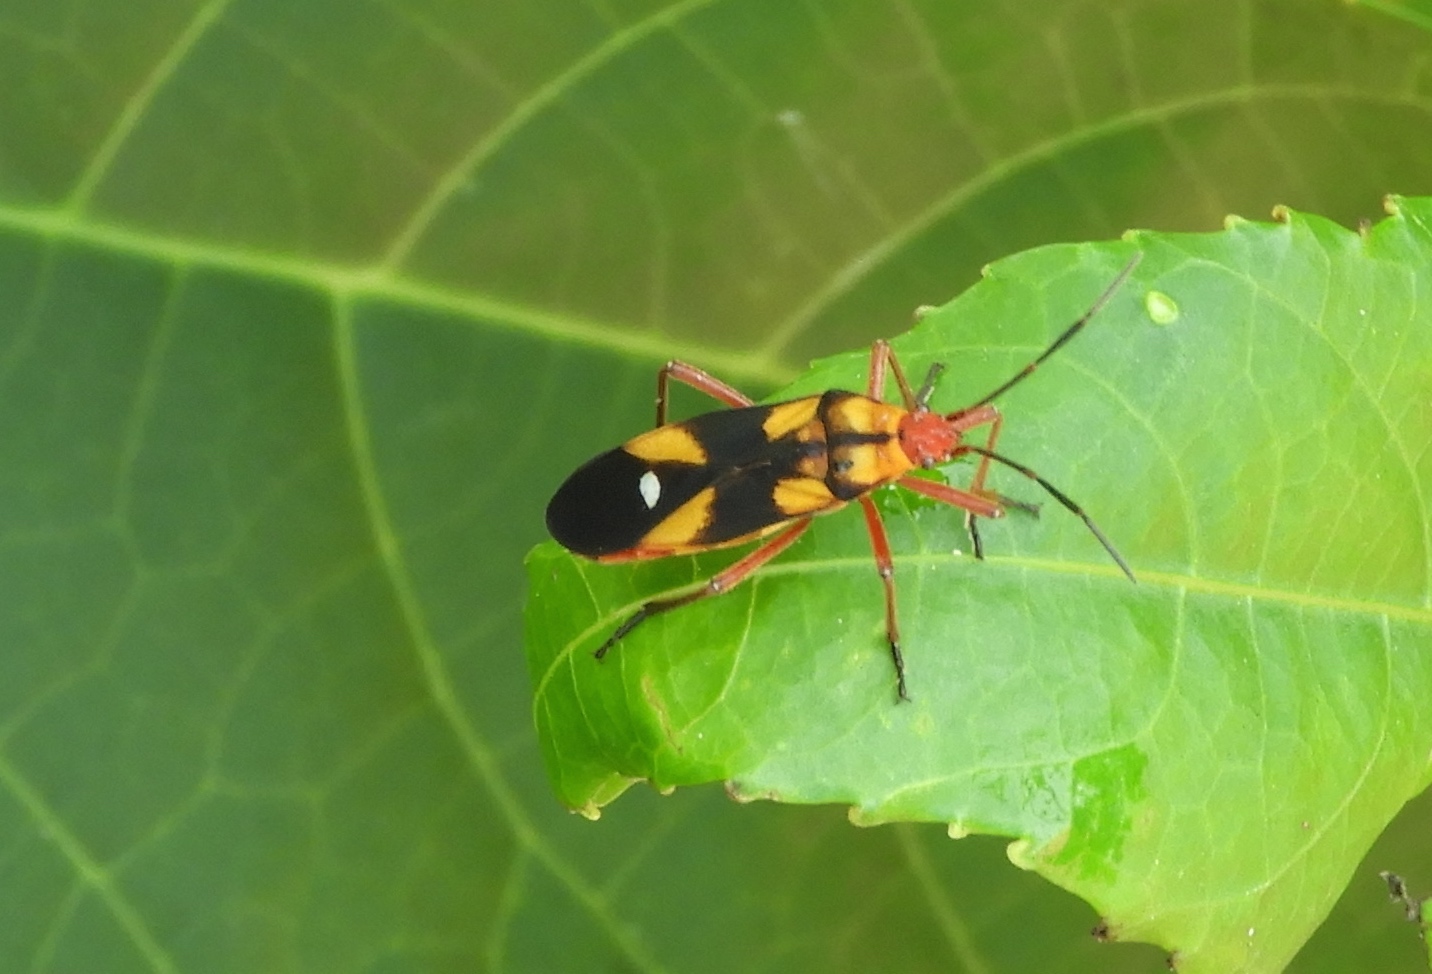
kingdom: Animalia
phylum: Arthropoda
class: Insecta
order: Hemiptera
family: Lygaeidae
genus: Oncopeltus
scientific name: Oncopeltus guttaloides
